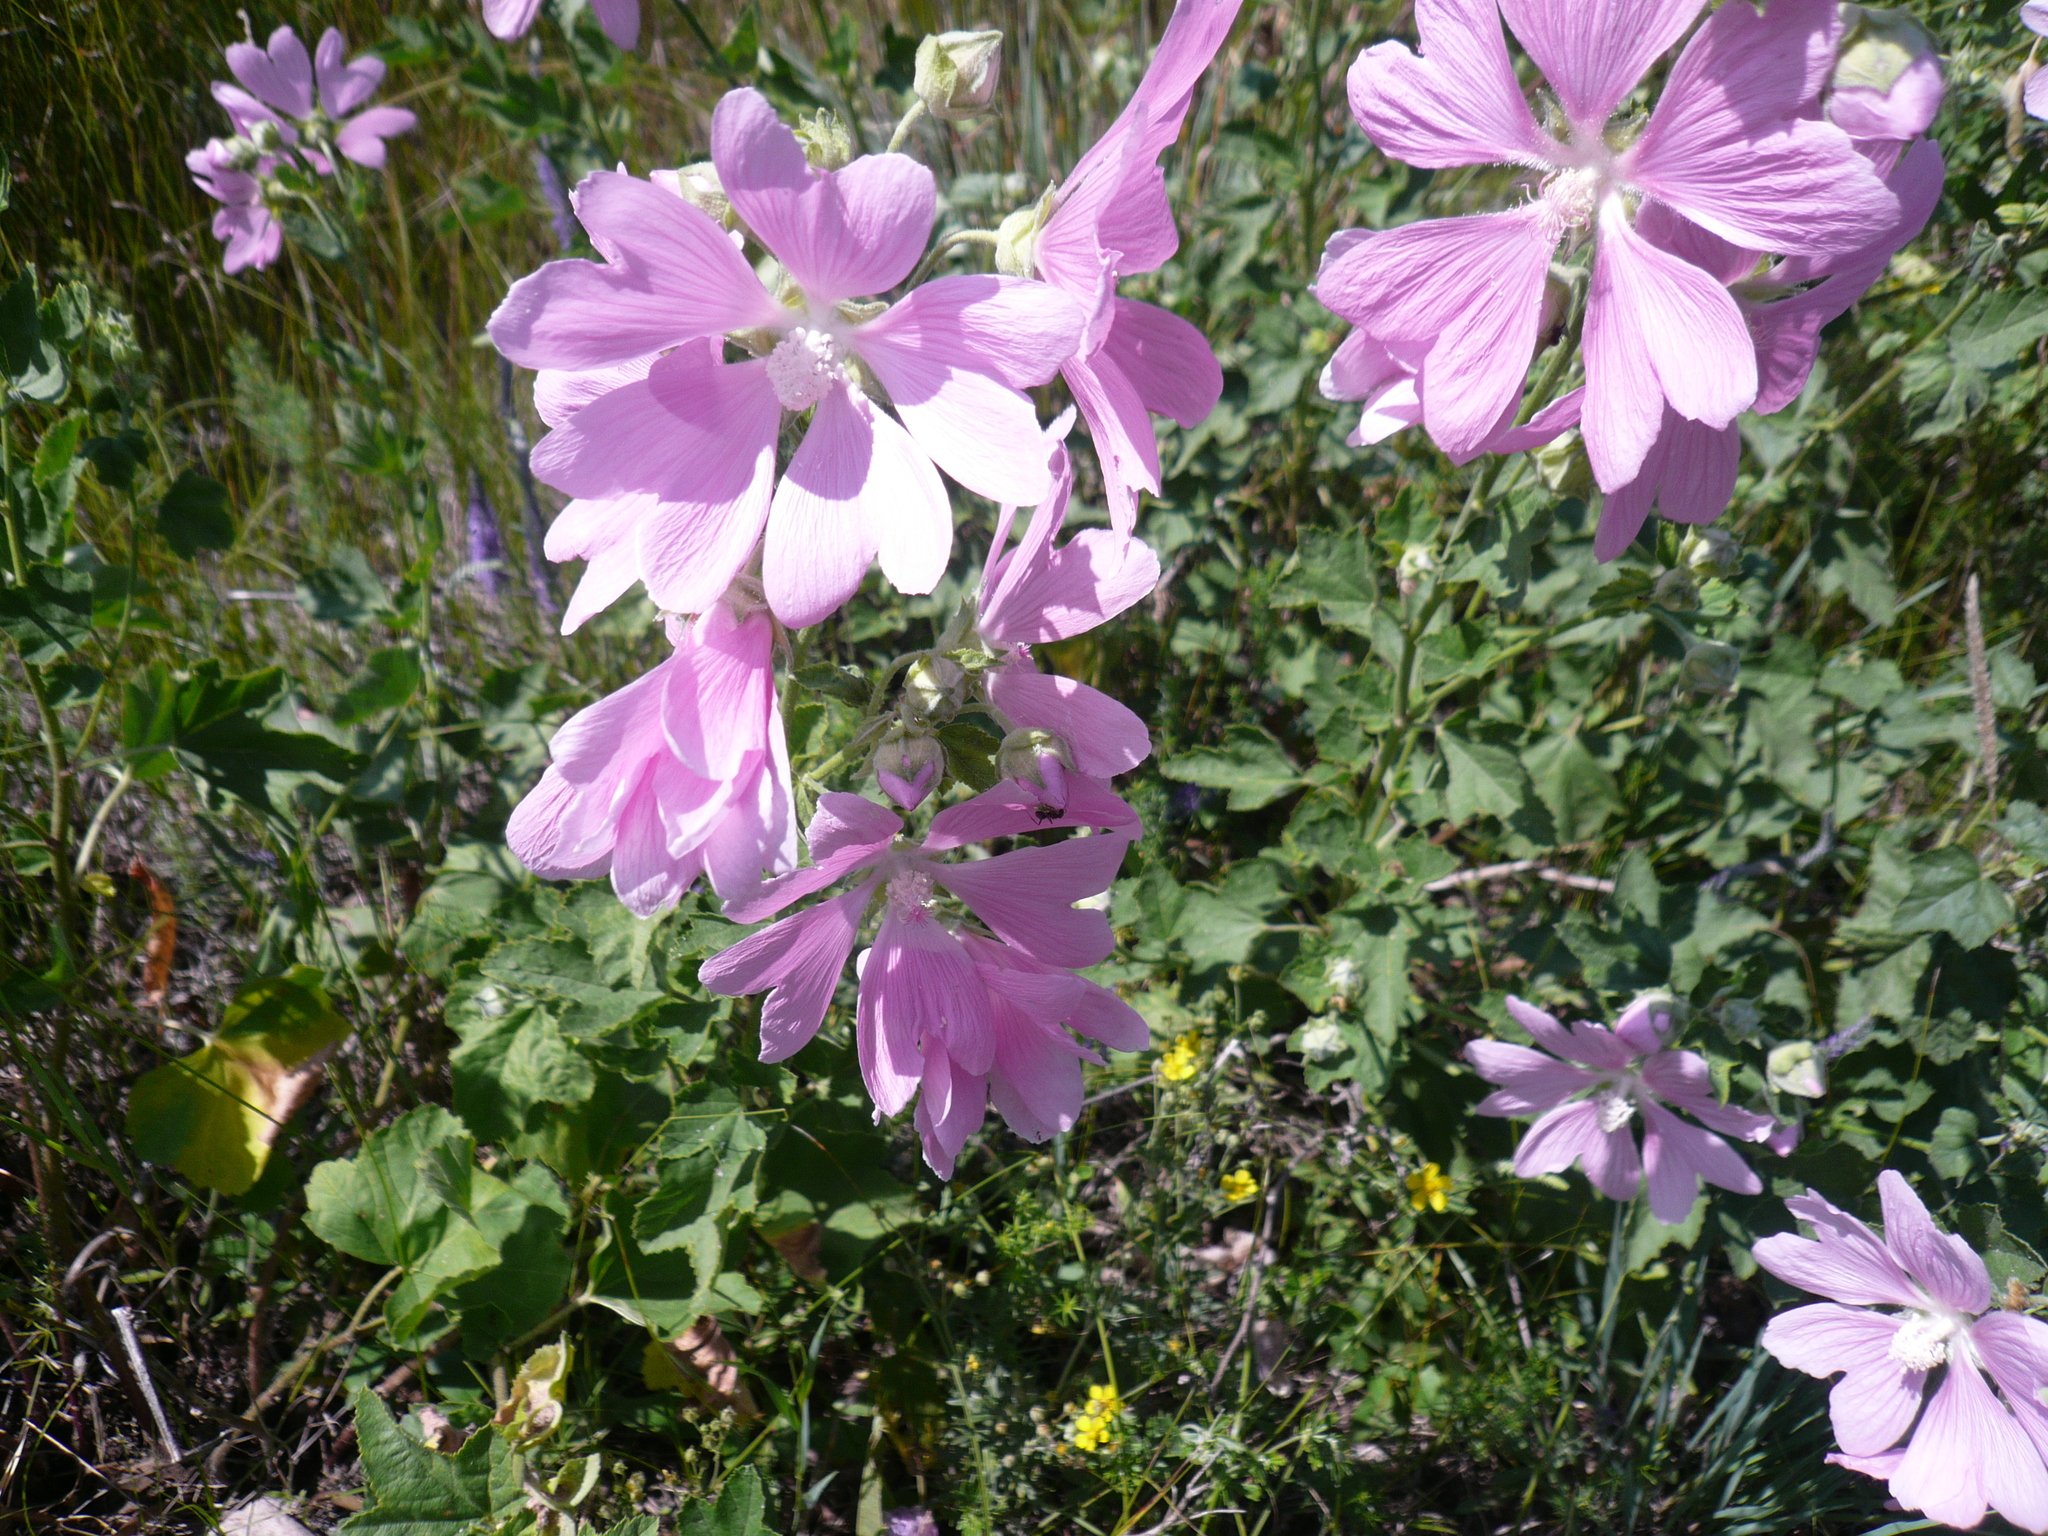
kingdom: Plantae
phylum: Tracheophyta
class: Magnoliopsida
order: Malvales
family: Malvaceae
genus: Malva
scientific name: Malva thuringiaca
